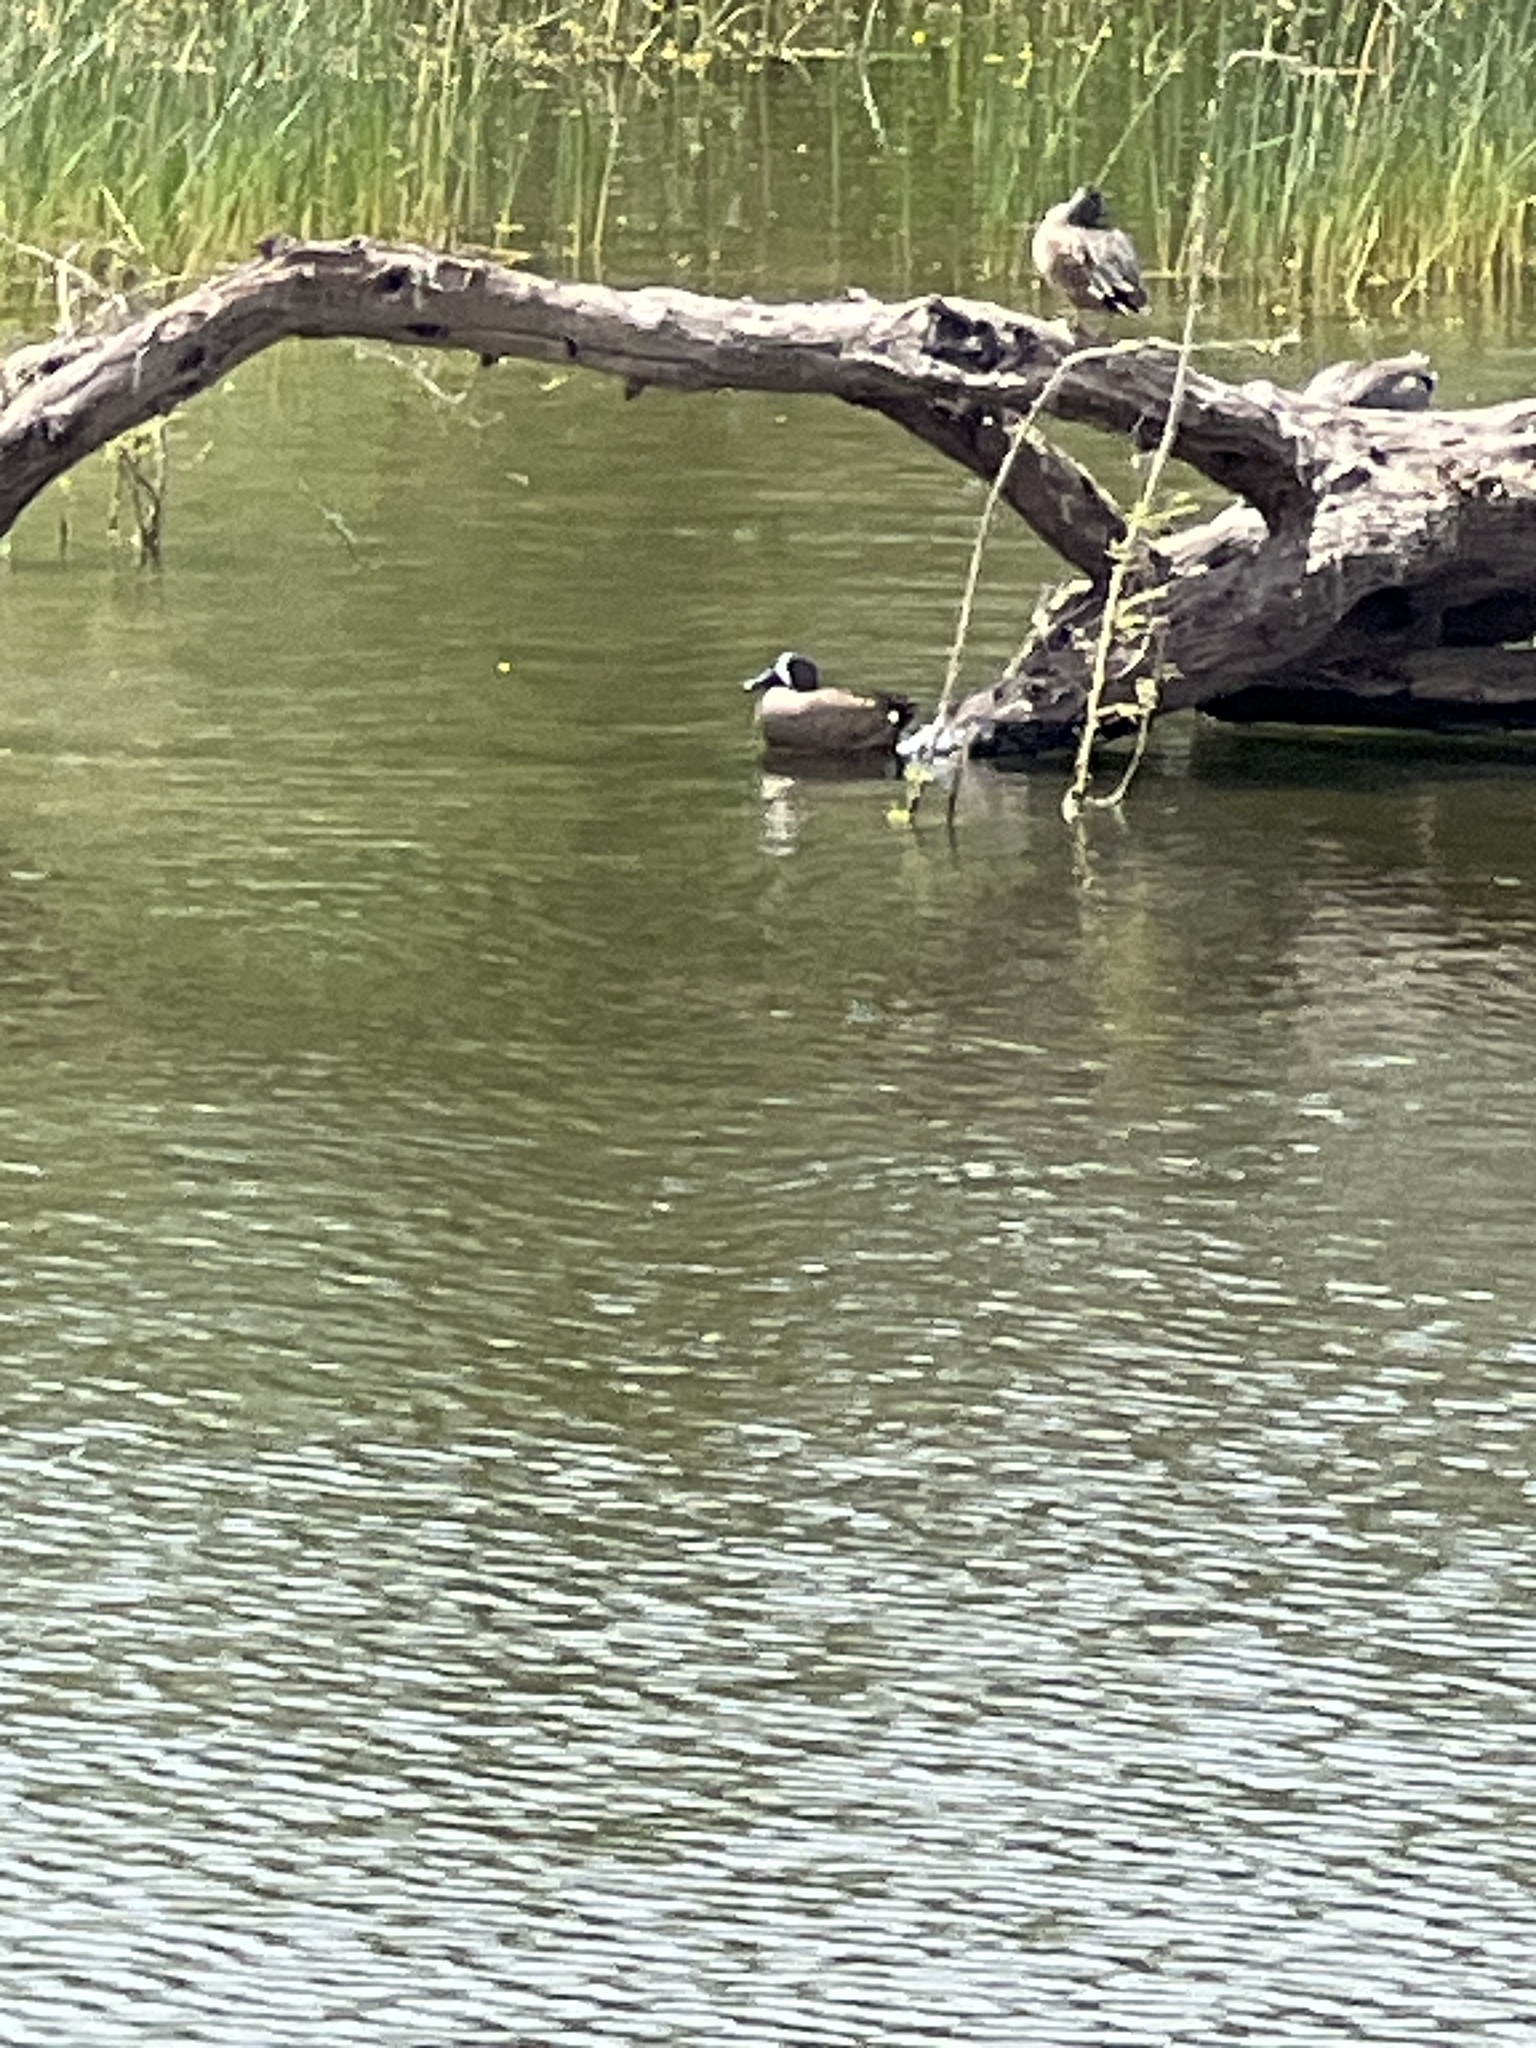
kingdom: Animalia
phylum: Chordata
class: Aves
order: Anseriformes
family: Anatidae
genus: Spatula
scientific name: Spatula discors
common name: Blue-winged teal
